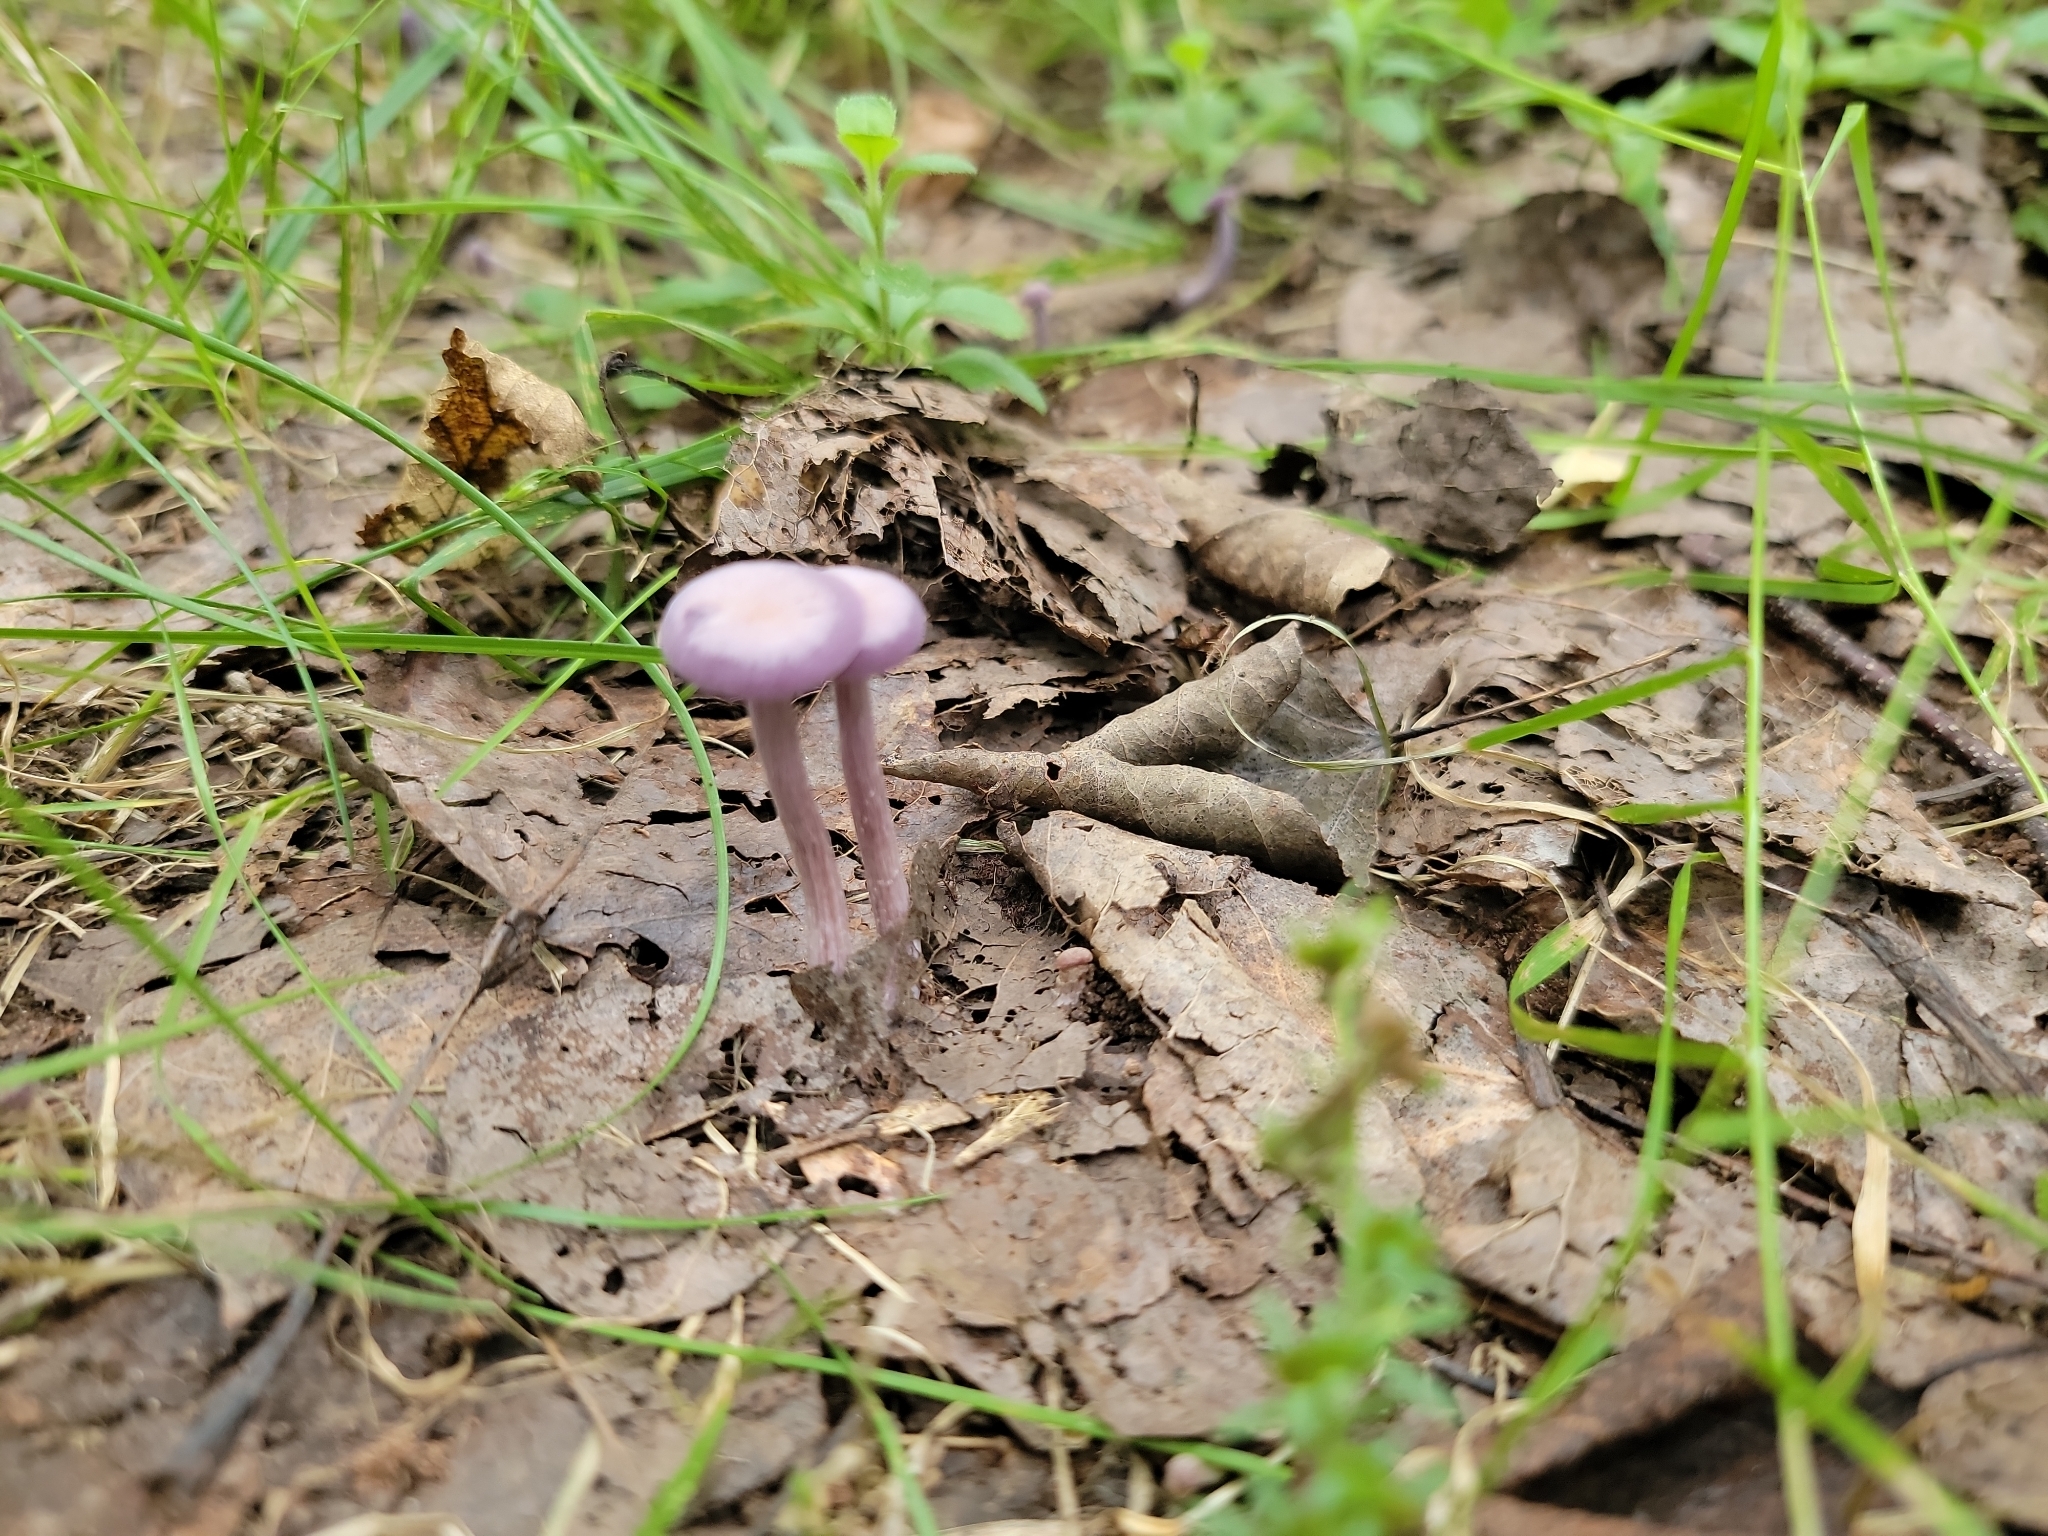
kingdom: Fungi
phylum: Basidiomycota
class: Agaricomycetes
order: Agaricales
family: Hydnangiaceae
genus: Laccaria
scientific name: Laccaria amethystina
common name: Amethyst deceiver
